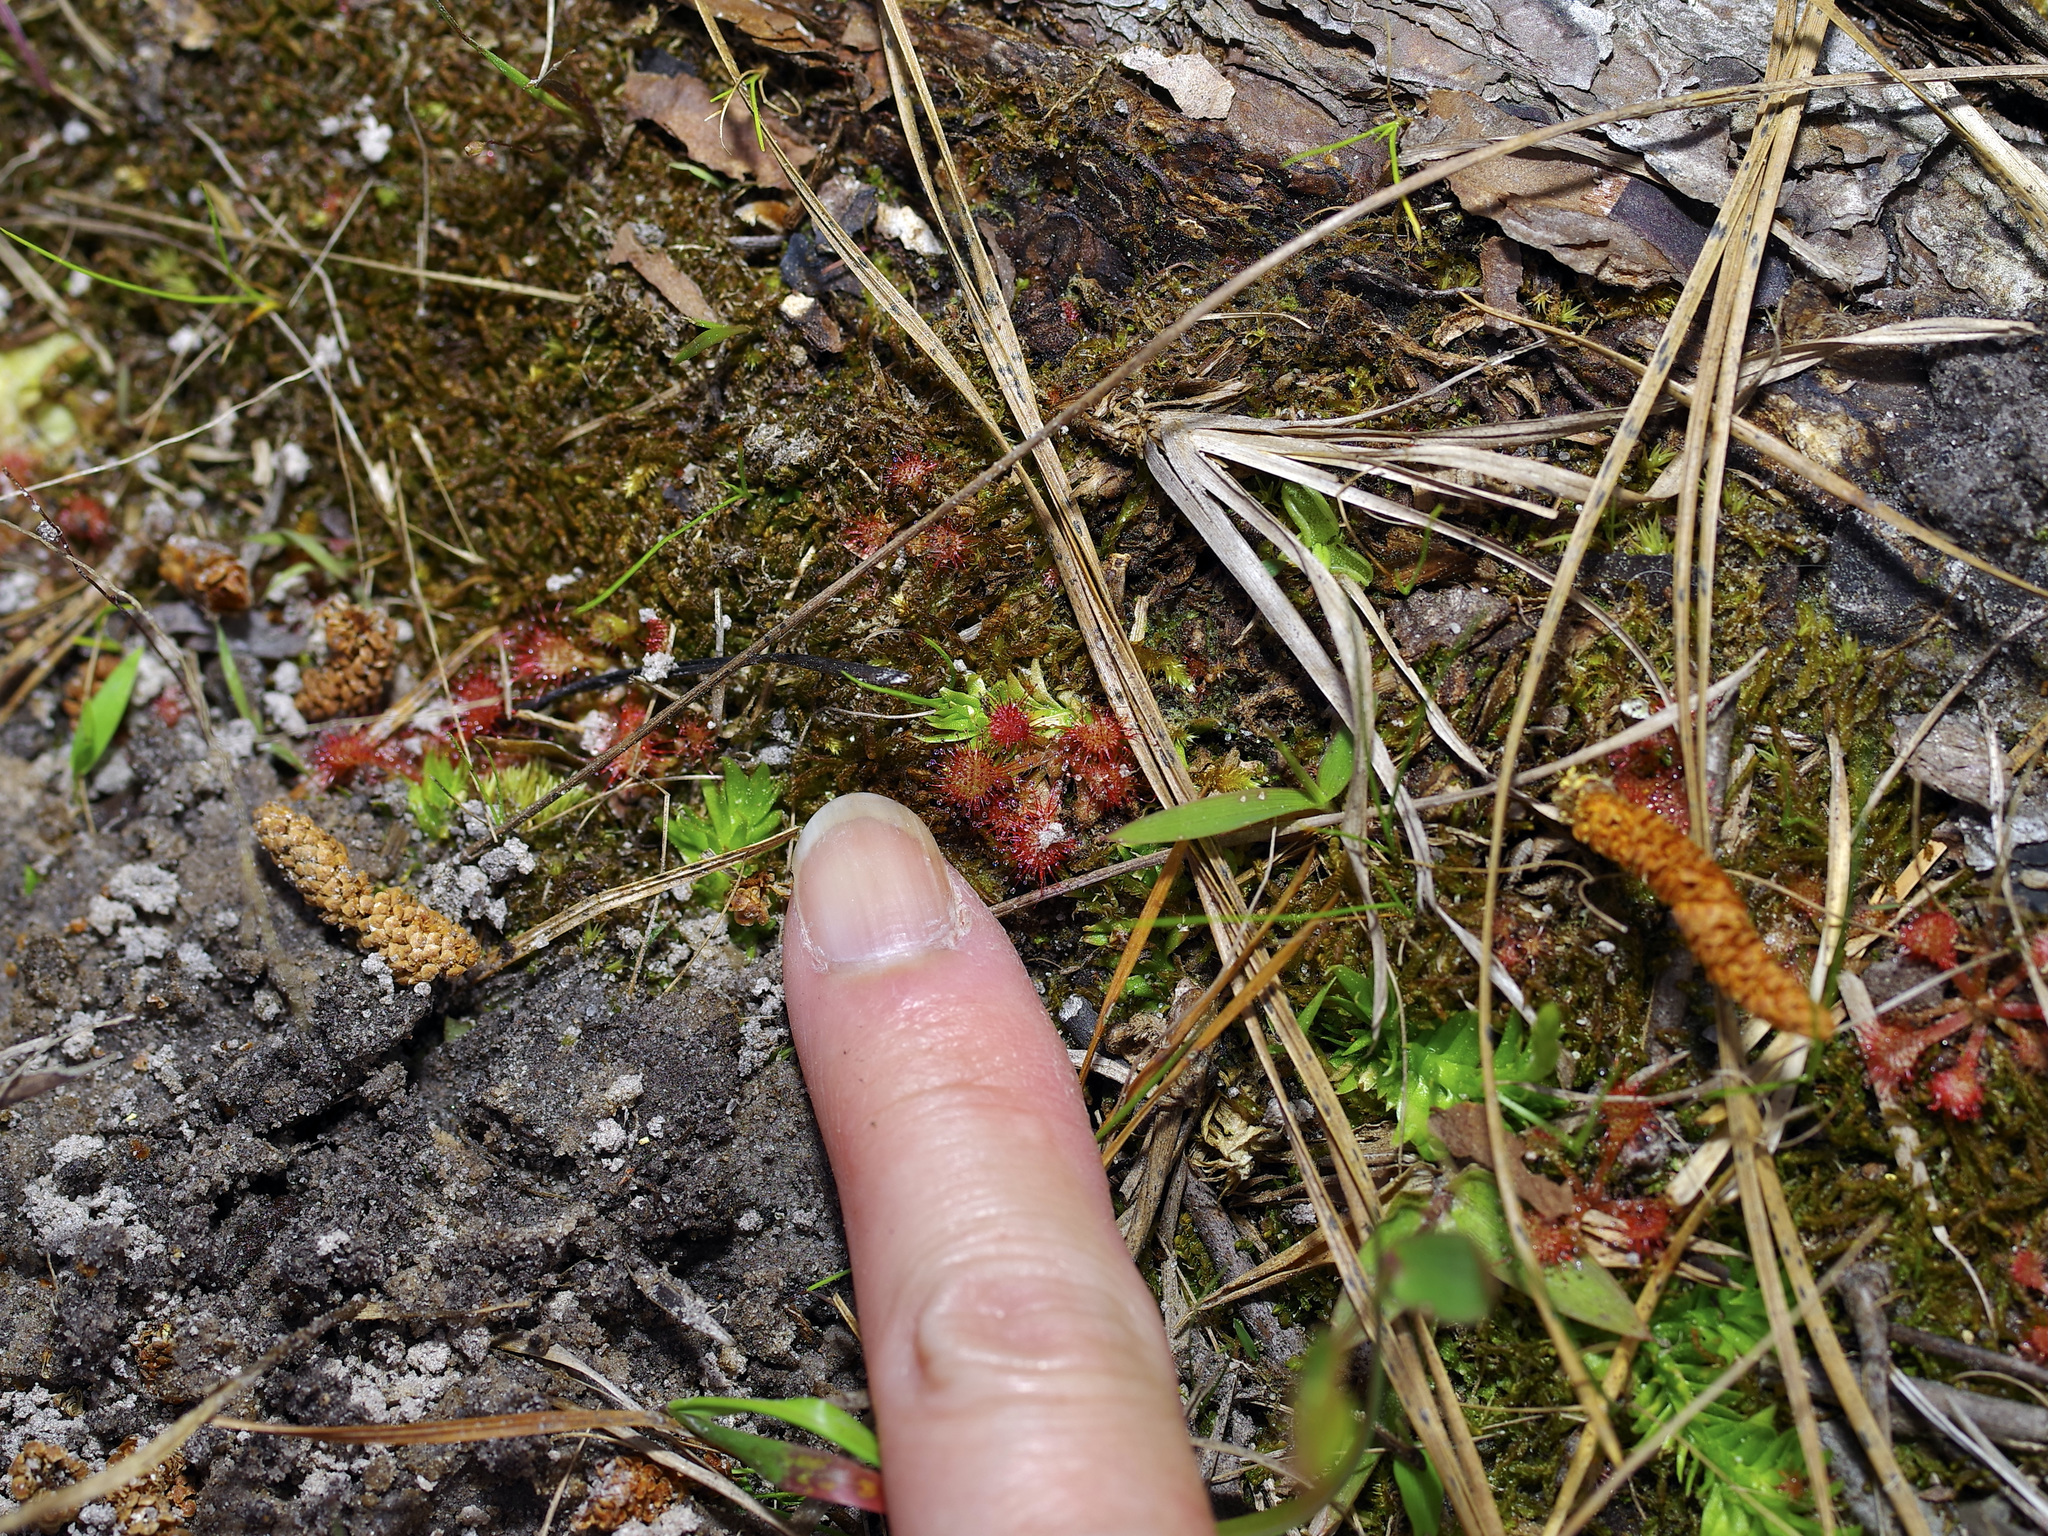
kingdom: Plantae
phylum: Tracheophyta
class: Magnoliopsida
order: Caryophyllales
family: Droseraceae
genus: Drosera
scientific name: Drosera capillaris
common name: Pink sundew
